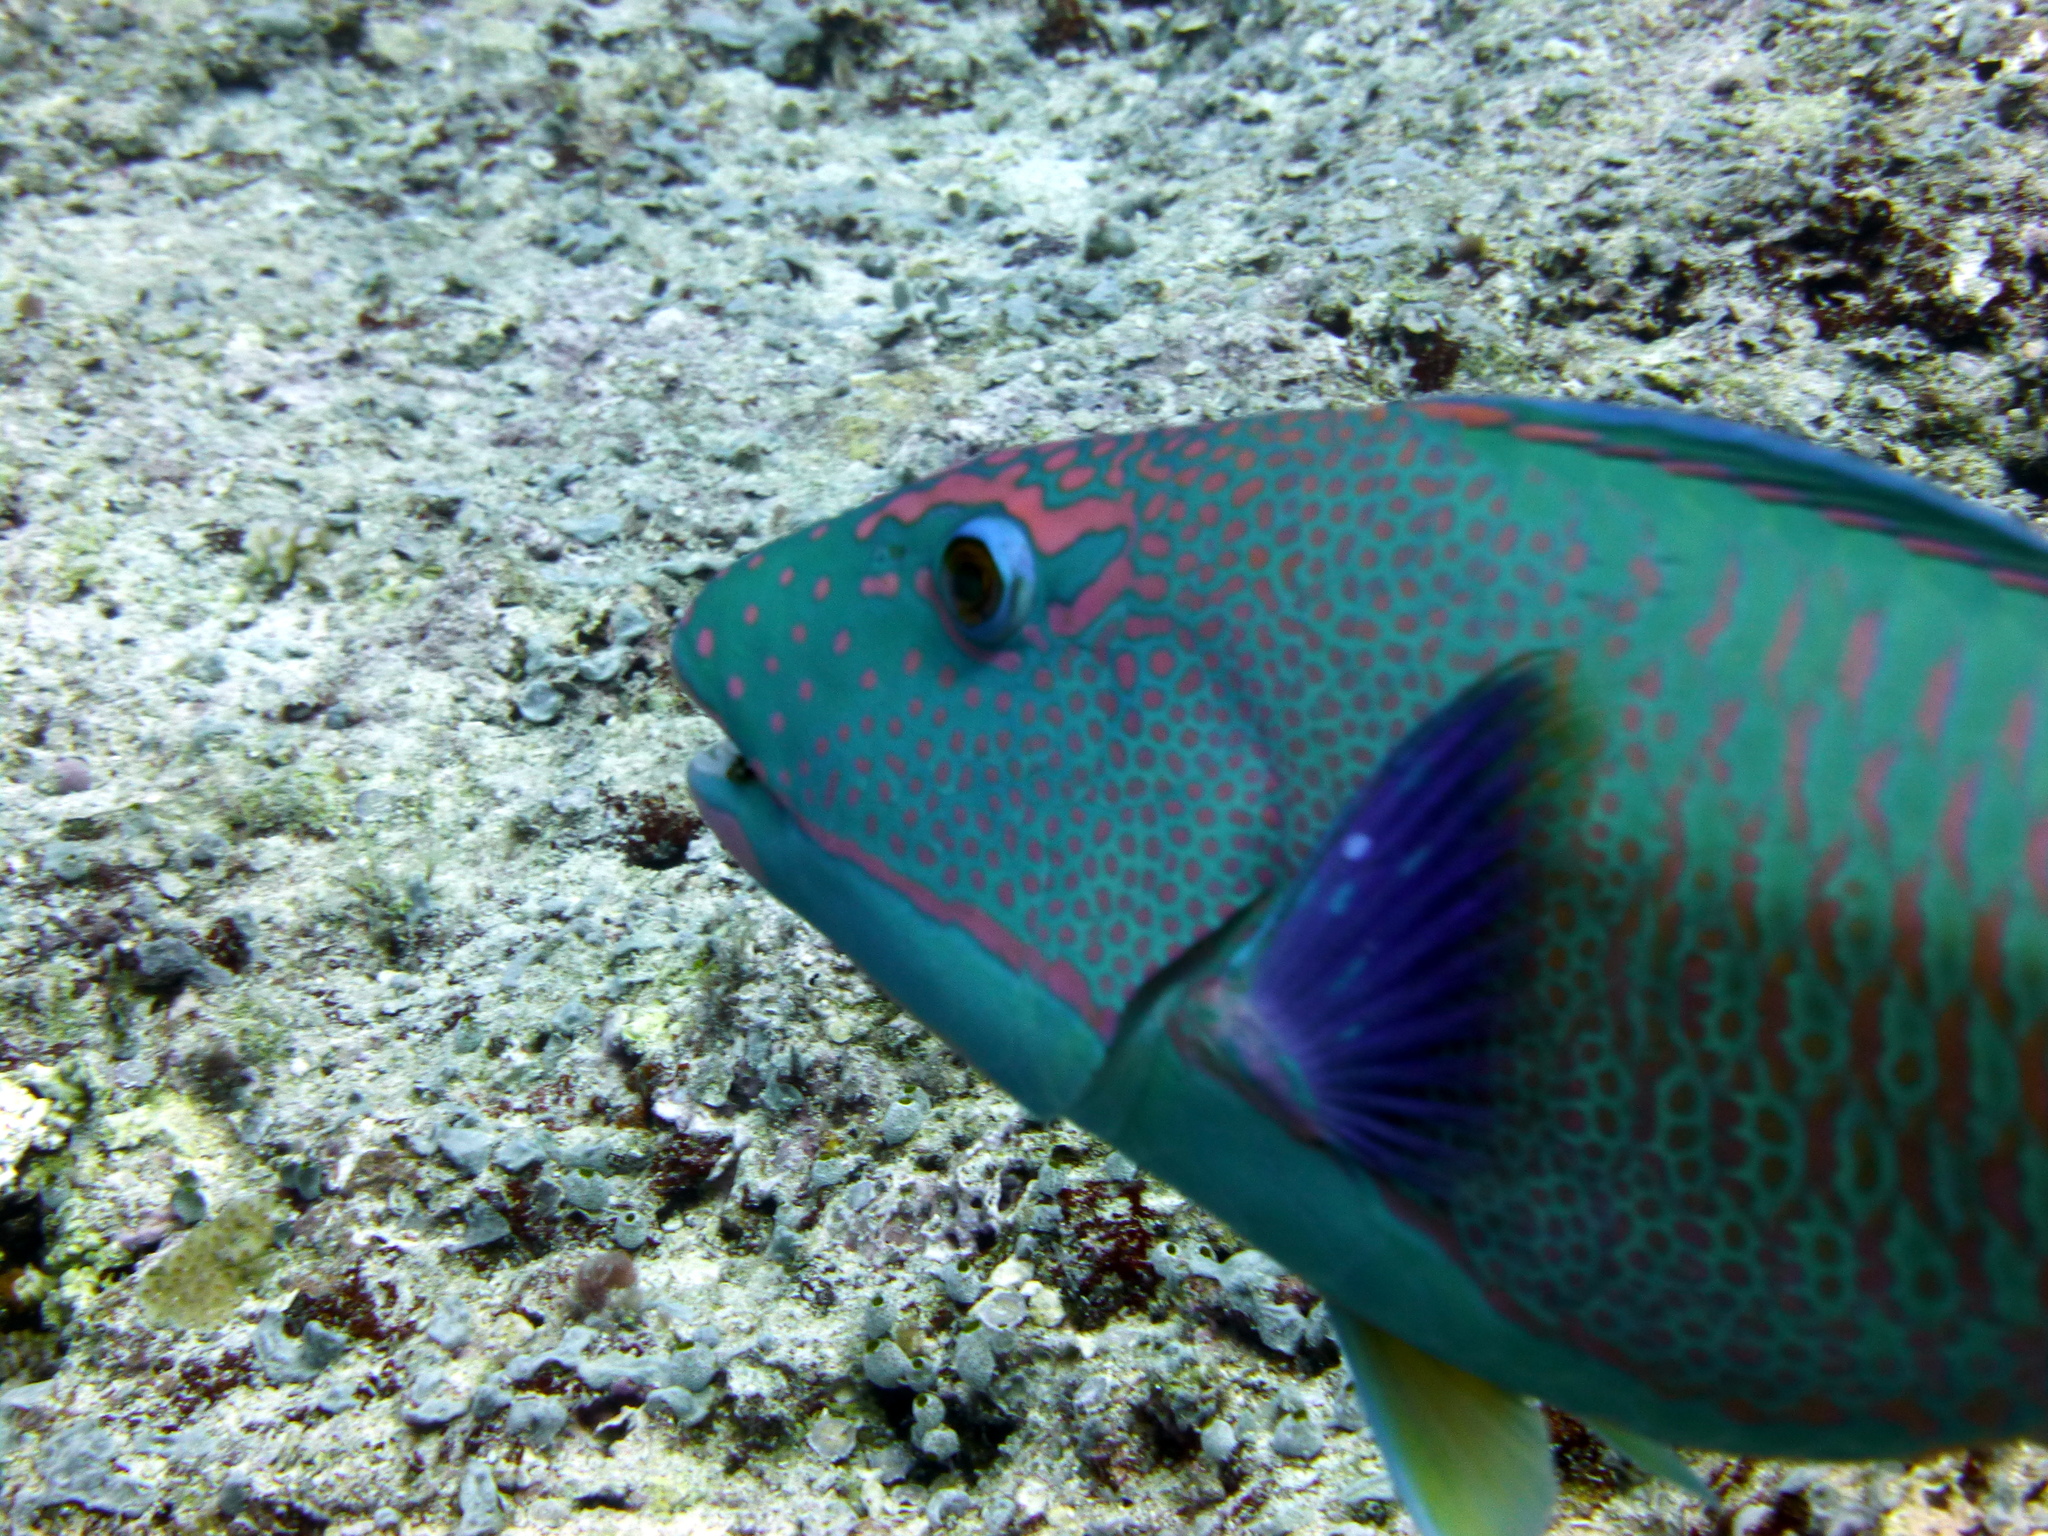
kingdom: Animalia
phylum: Chordata
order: Perciformes
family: Scaridae
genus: Cetoscarus
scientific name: Cetoscarus ocellatus
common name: Bicolor parrotfish
